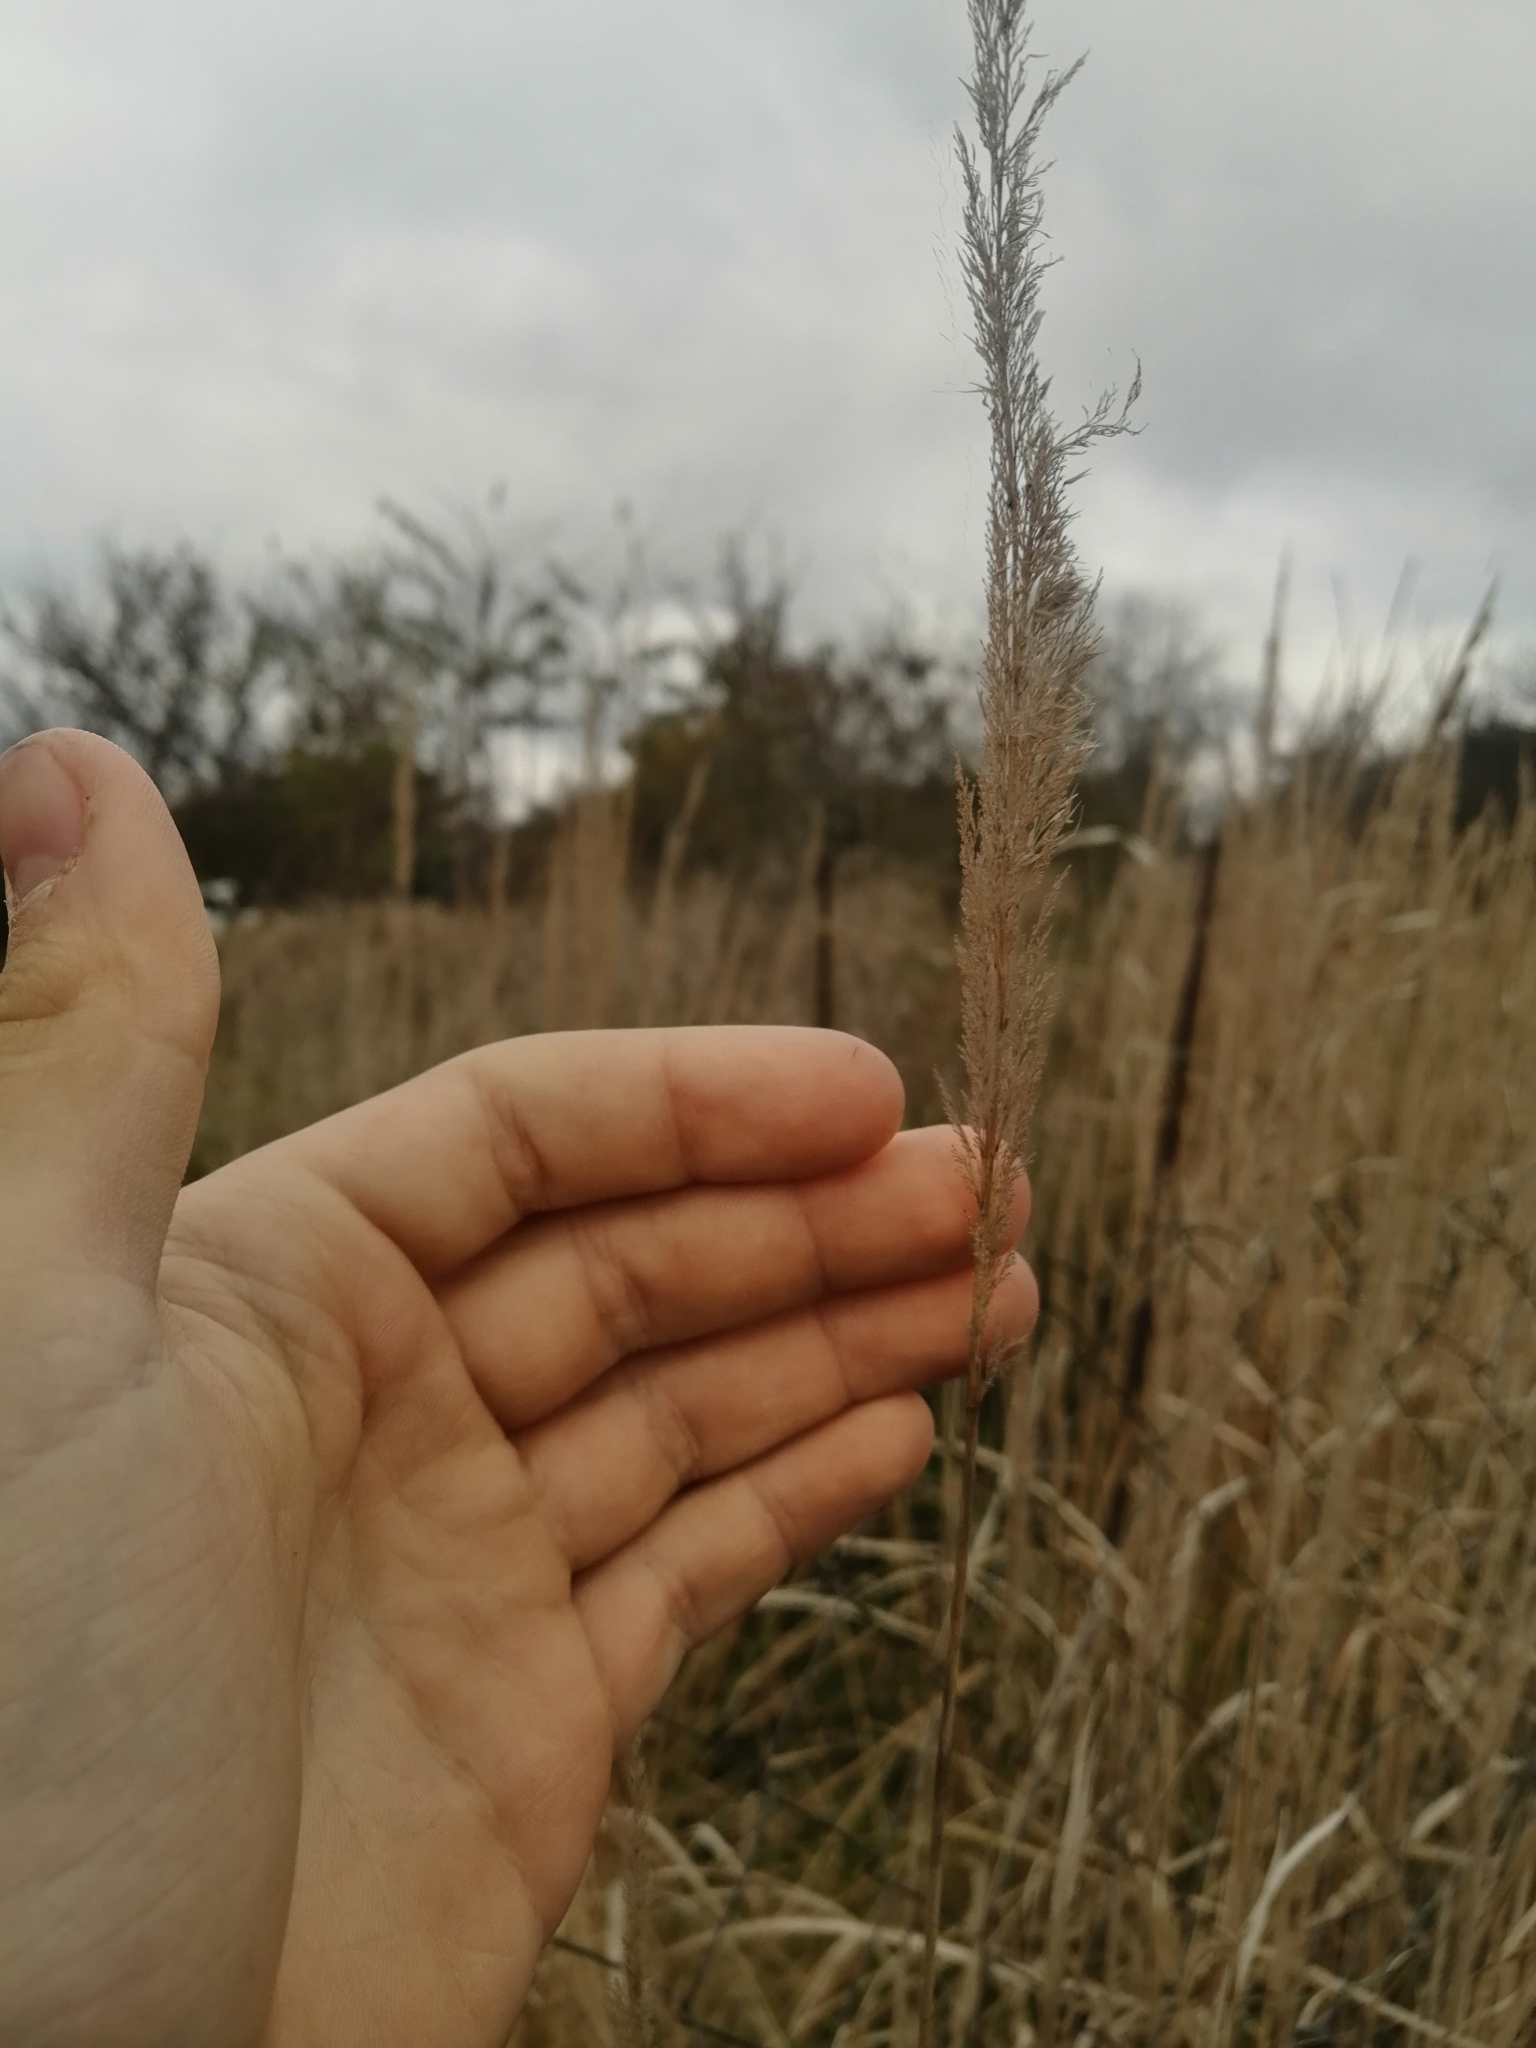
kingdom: Plantae
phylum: Tracheophyta
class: Liliopsida
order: Poales
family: Poaceae
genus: Phragmites
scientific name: Phragmites australis
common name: Common reed
